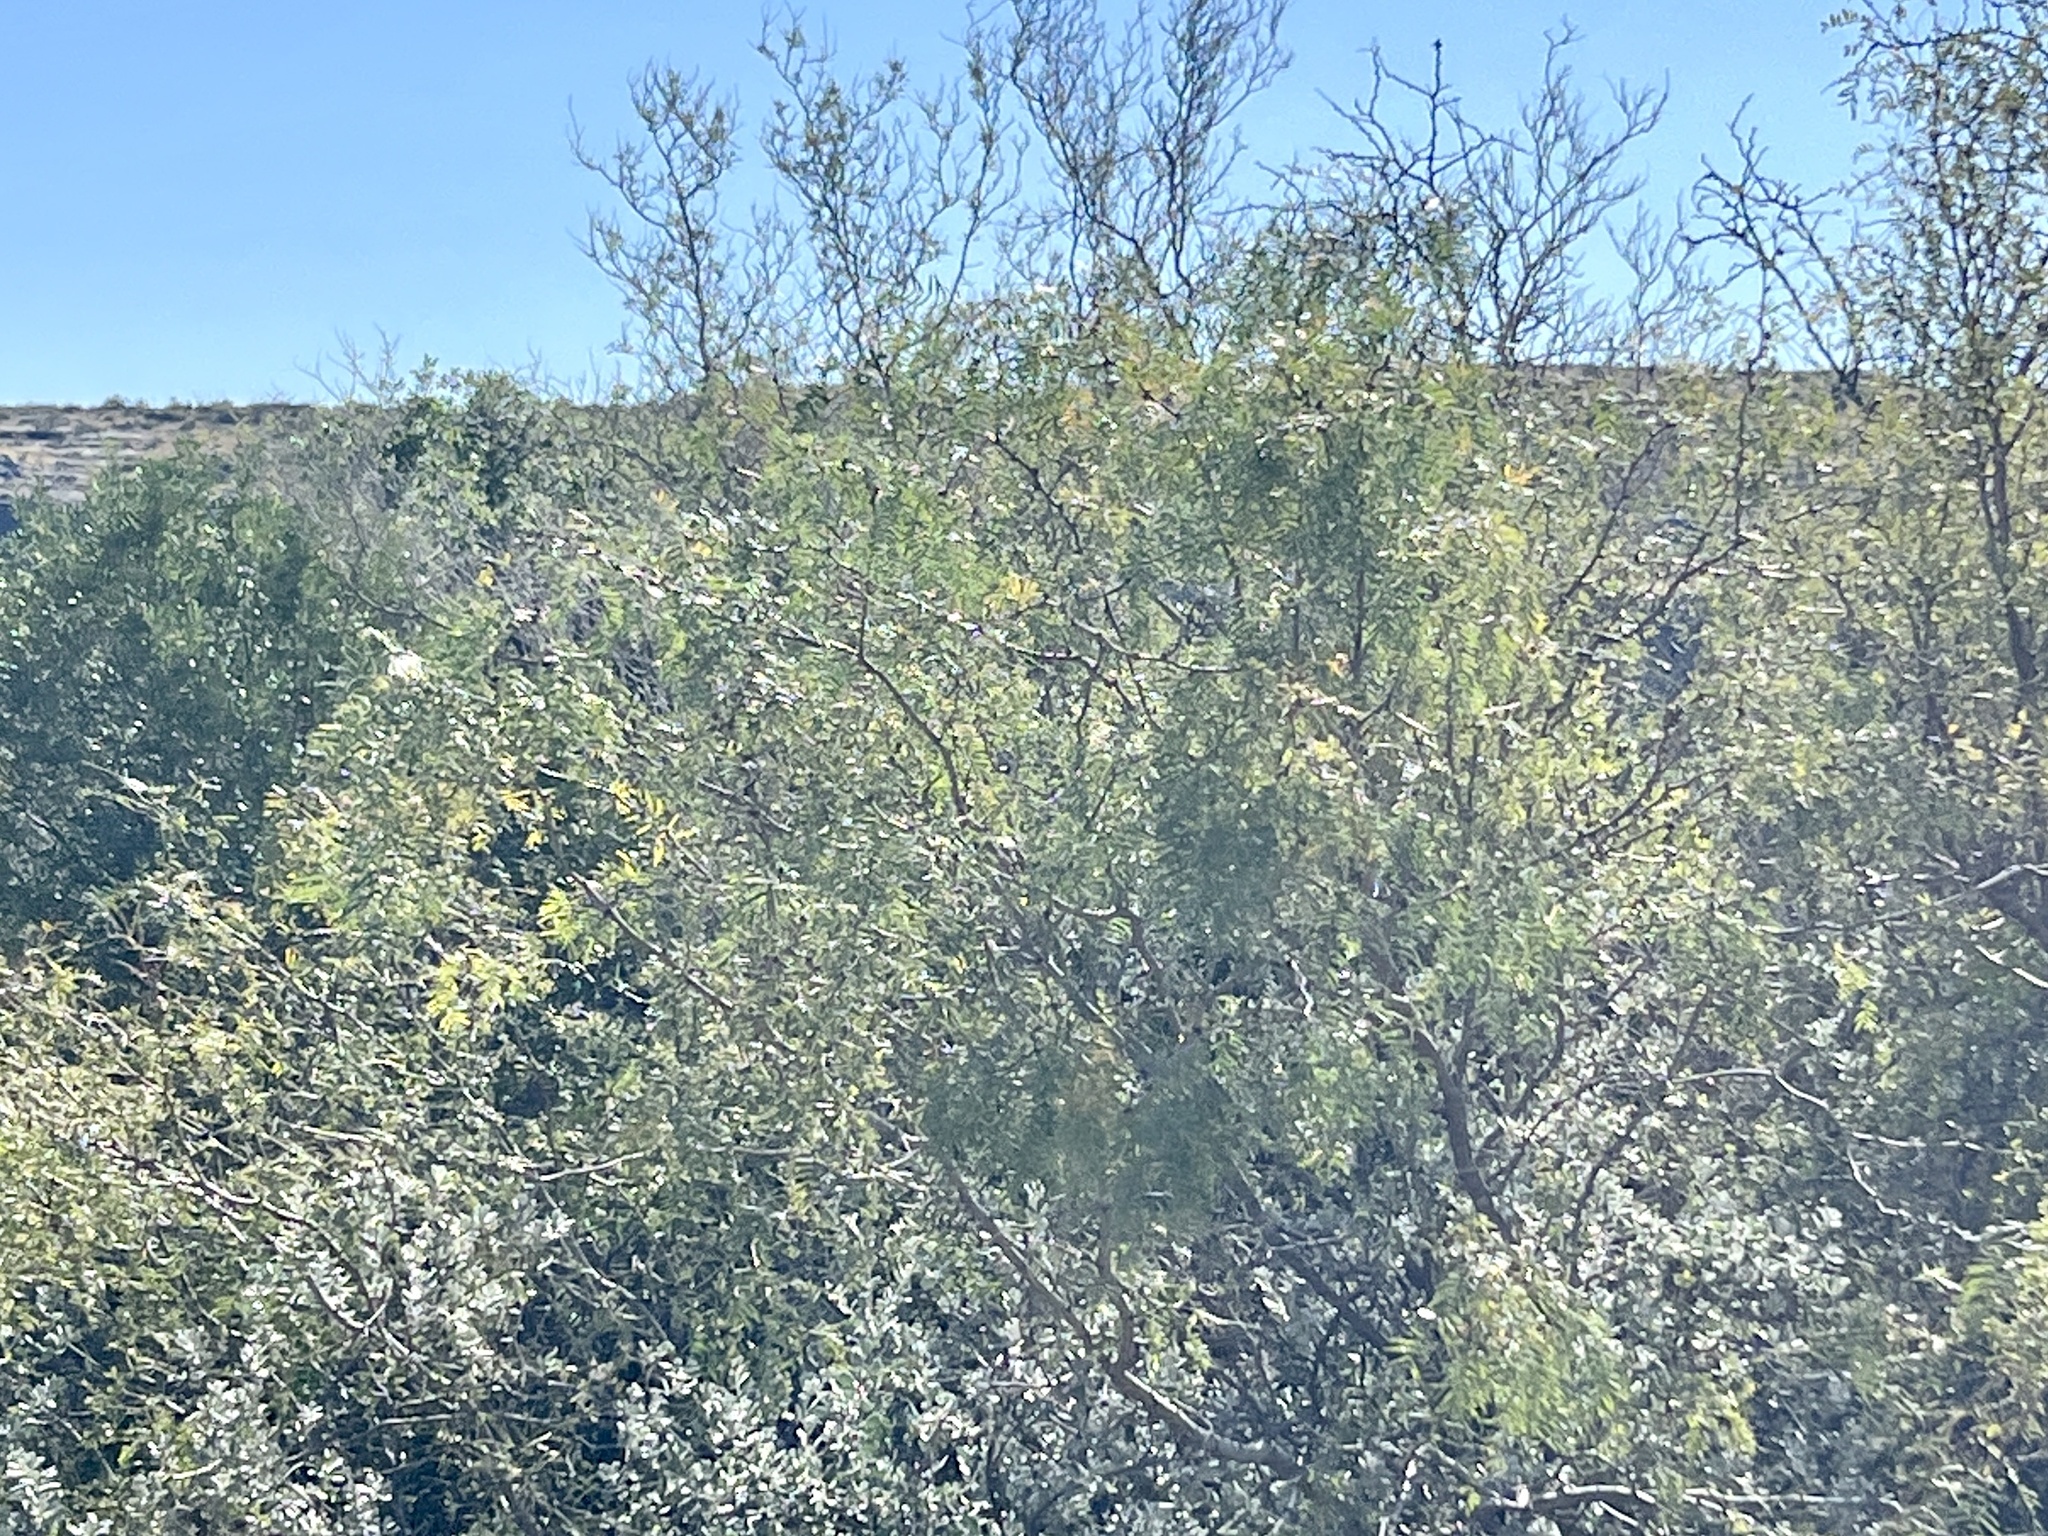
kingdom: Plantae
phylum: Tracheophyta
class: Magnoliopsida
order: Fabales
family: Fabaceae
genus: Prosopis
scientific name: Prosopis glandulosa
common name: Honey mesquite
